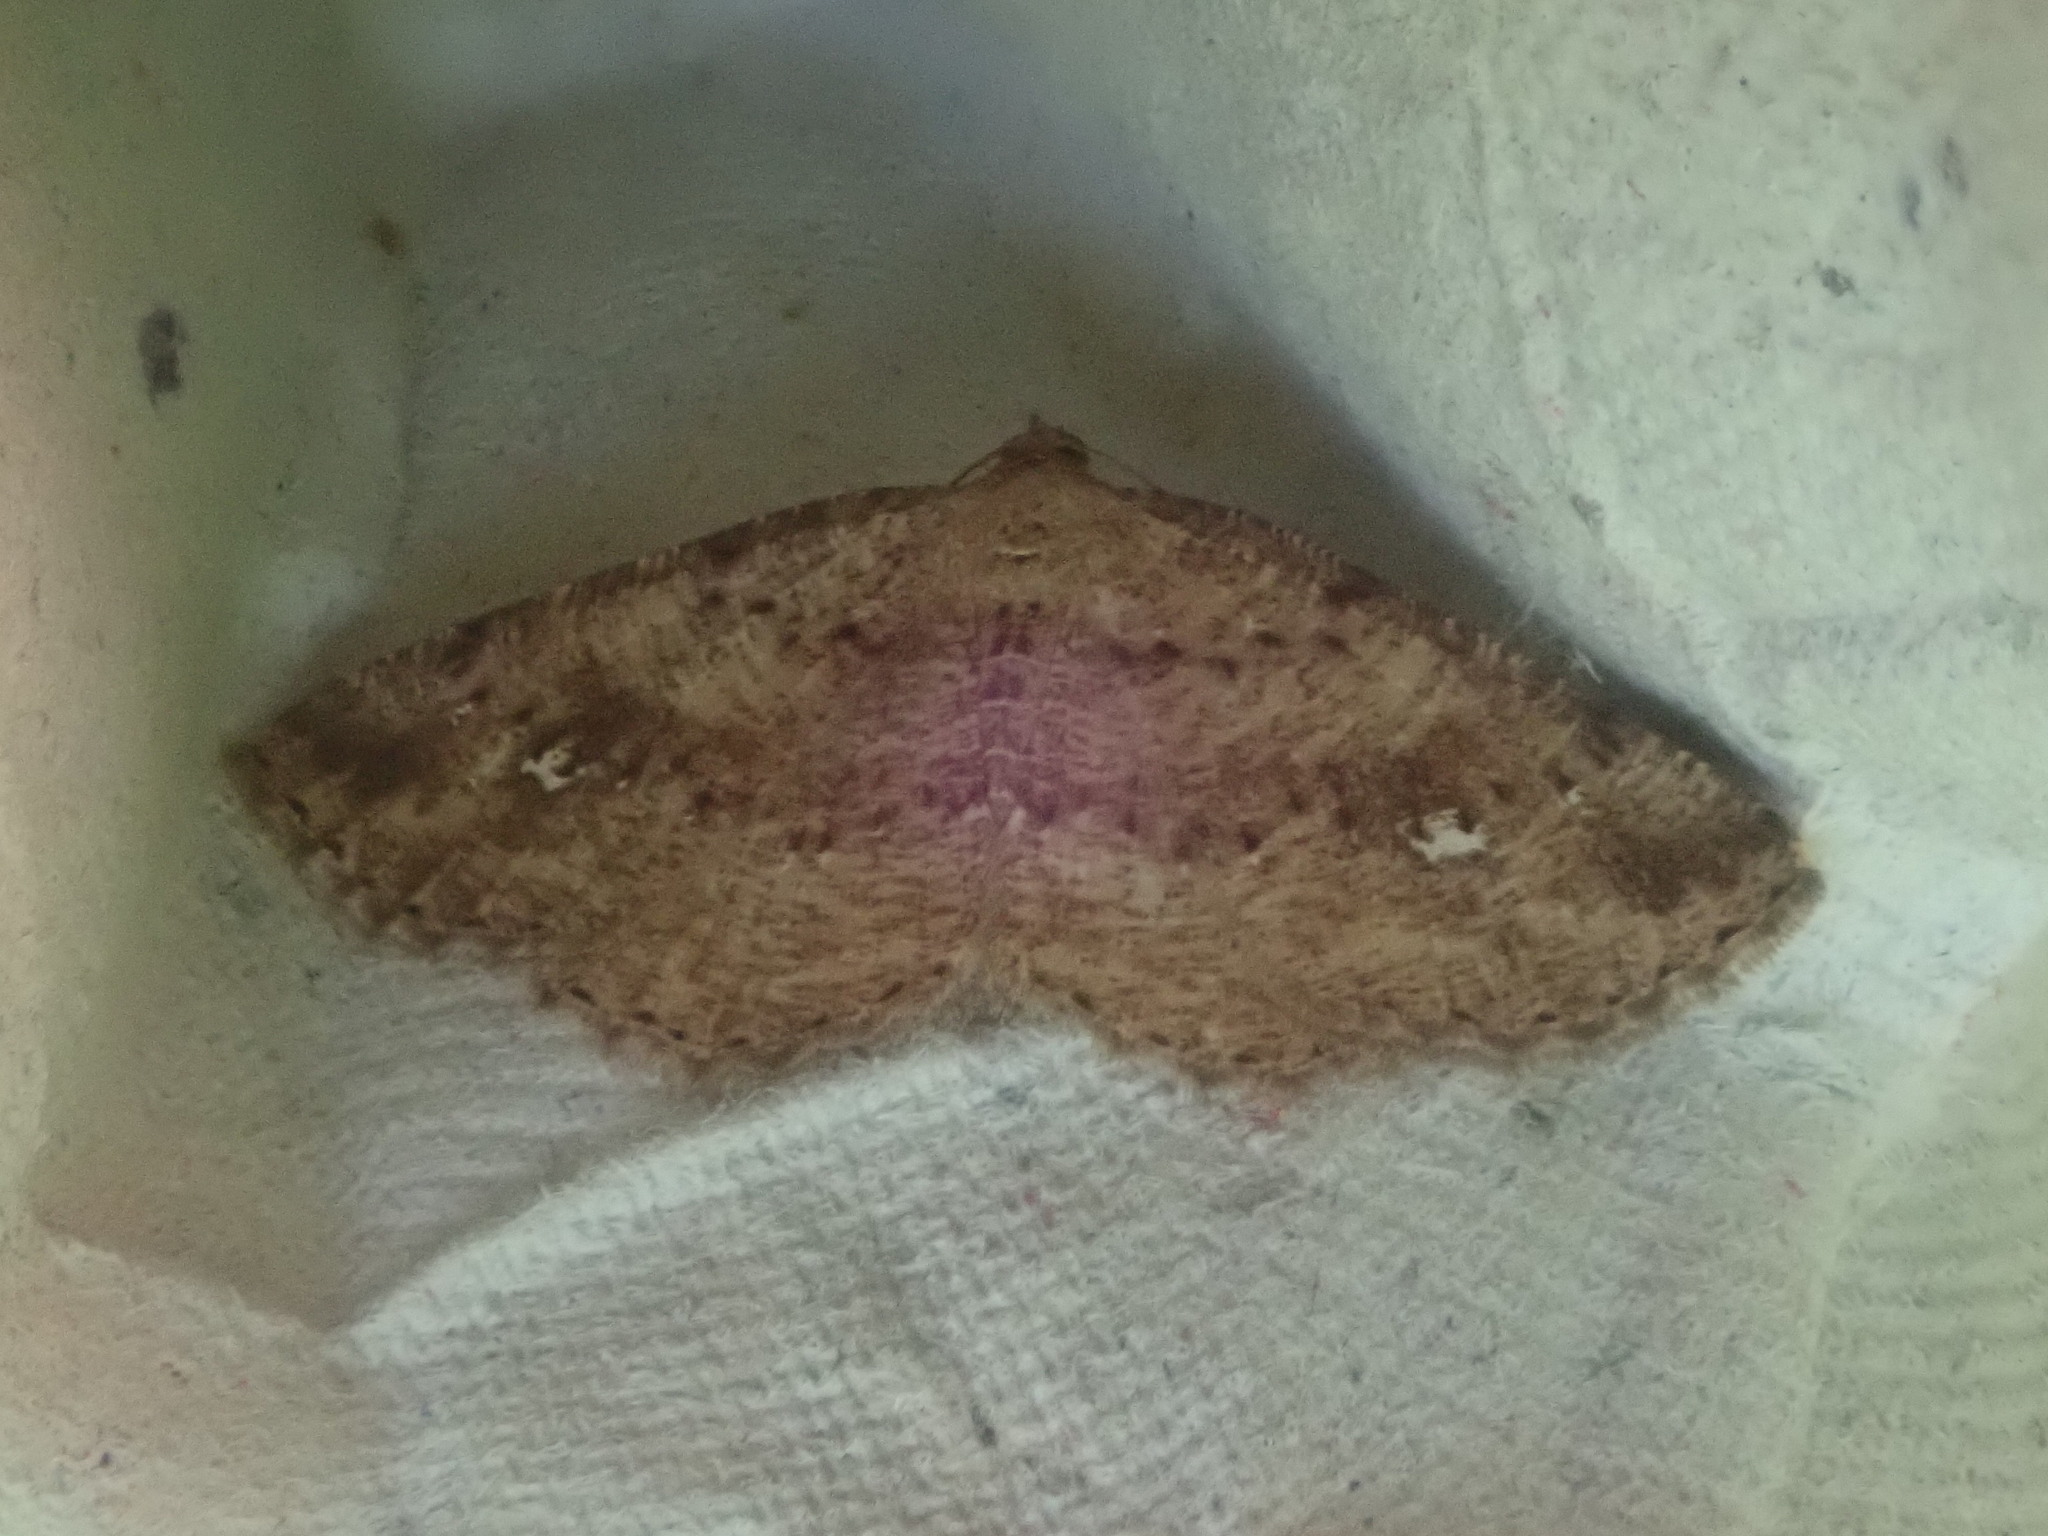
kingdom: Animalia
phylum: Arthropoda
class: Insecta
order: Lepidoptera
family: Geometridae
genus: Homochlodes
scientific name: Homochlodes fritillaria
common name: Pale homochlodes
